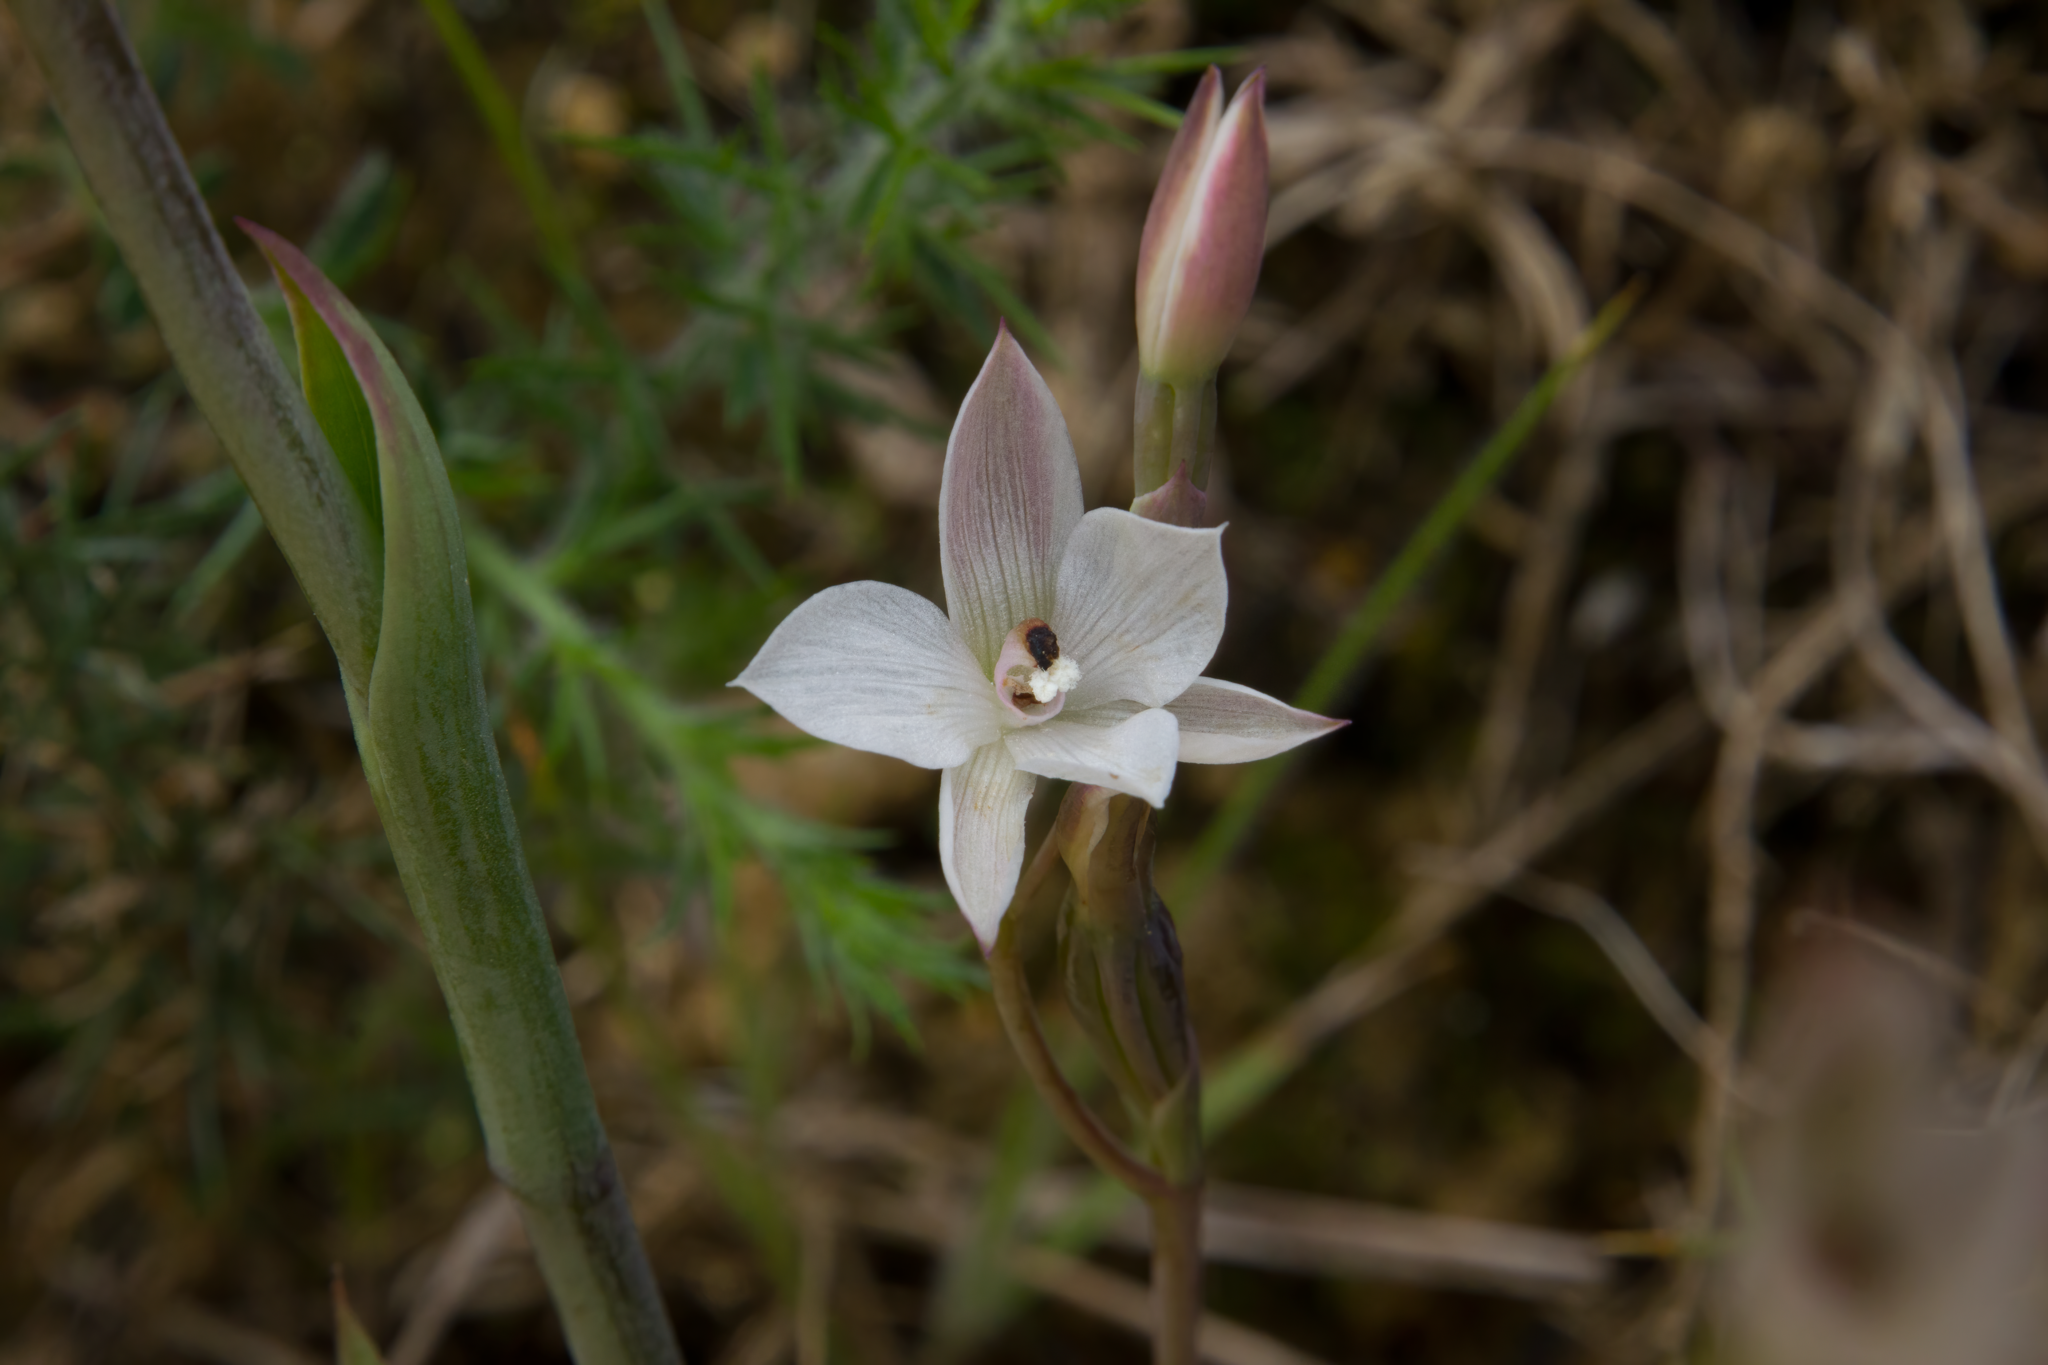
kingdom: Plantae
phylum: Tracheophyta
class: Liliopsida
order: Asparagales
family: Orchidaceae
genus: Thelymitra
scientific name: Thelymitra longifolia
